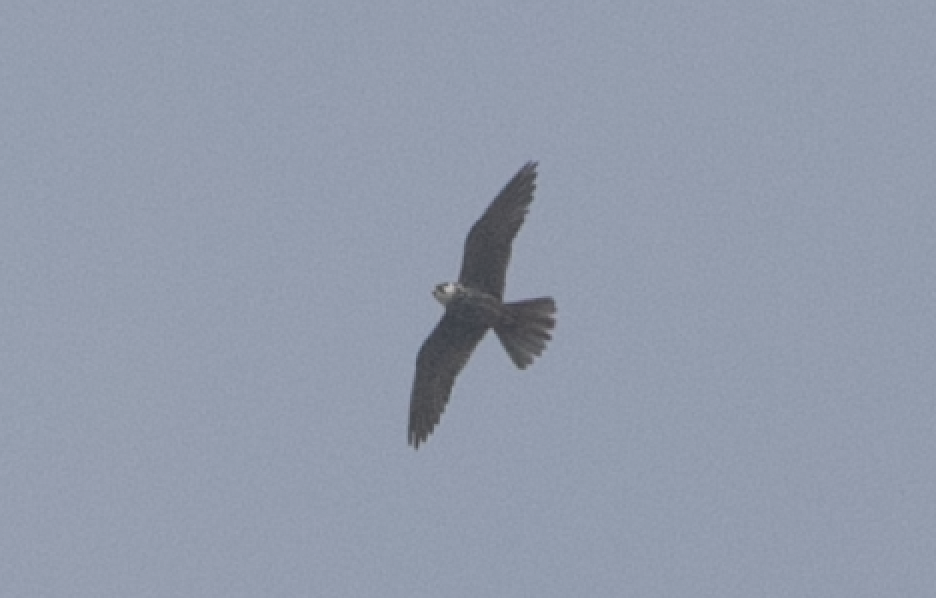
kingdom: Animalia
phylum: Chordata
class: Aves
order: Falconiformes
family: Falconidae
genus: Falco
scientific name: Falco subbuteo
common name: Eurasian hobby
